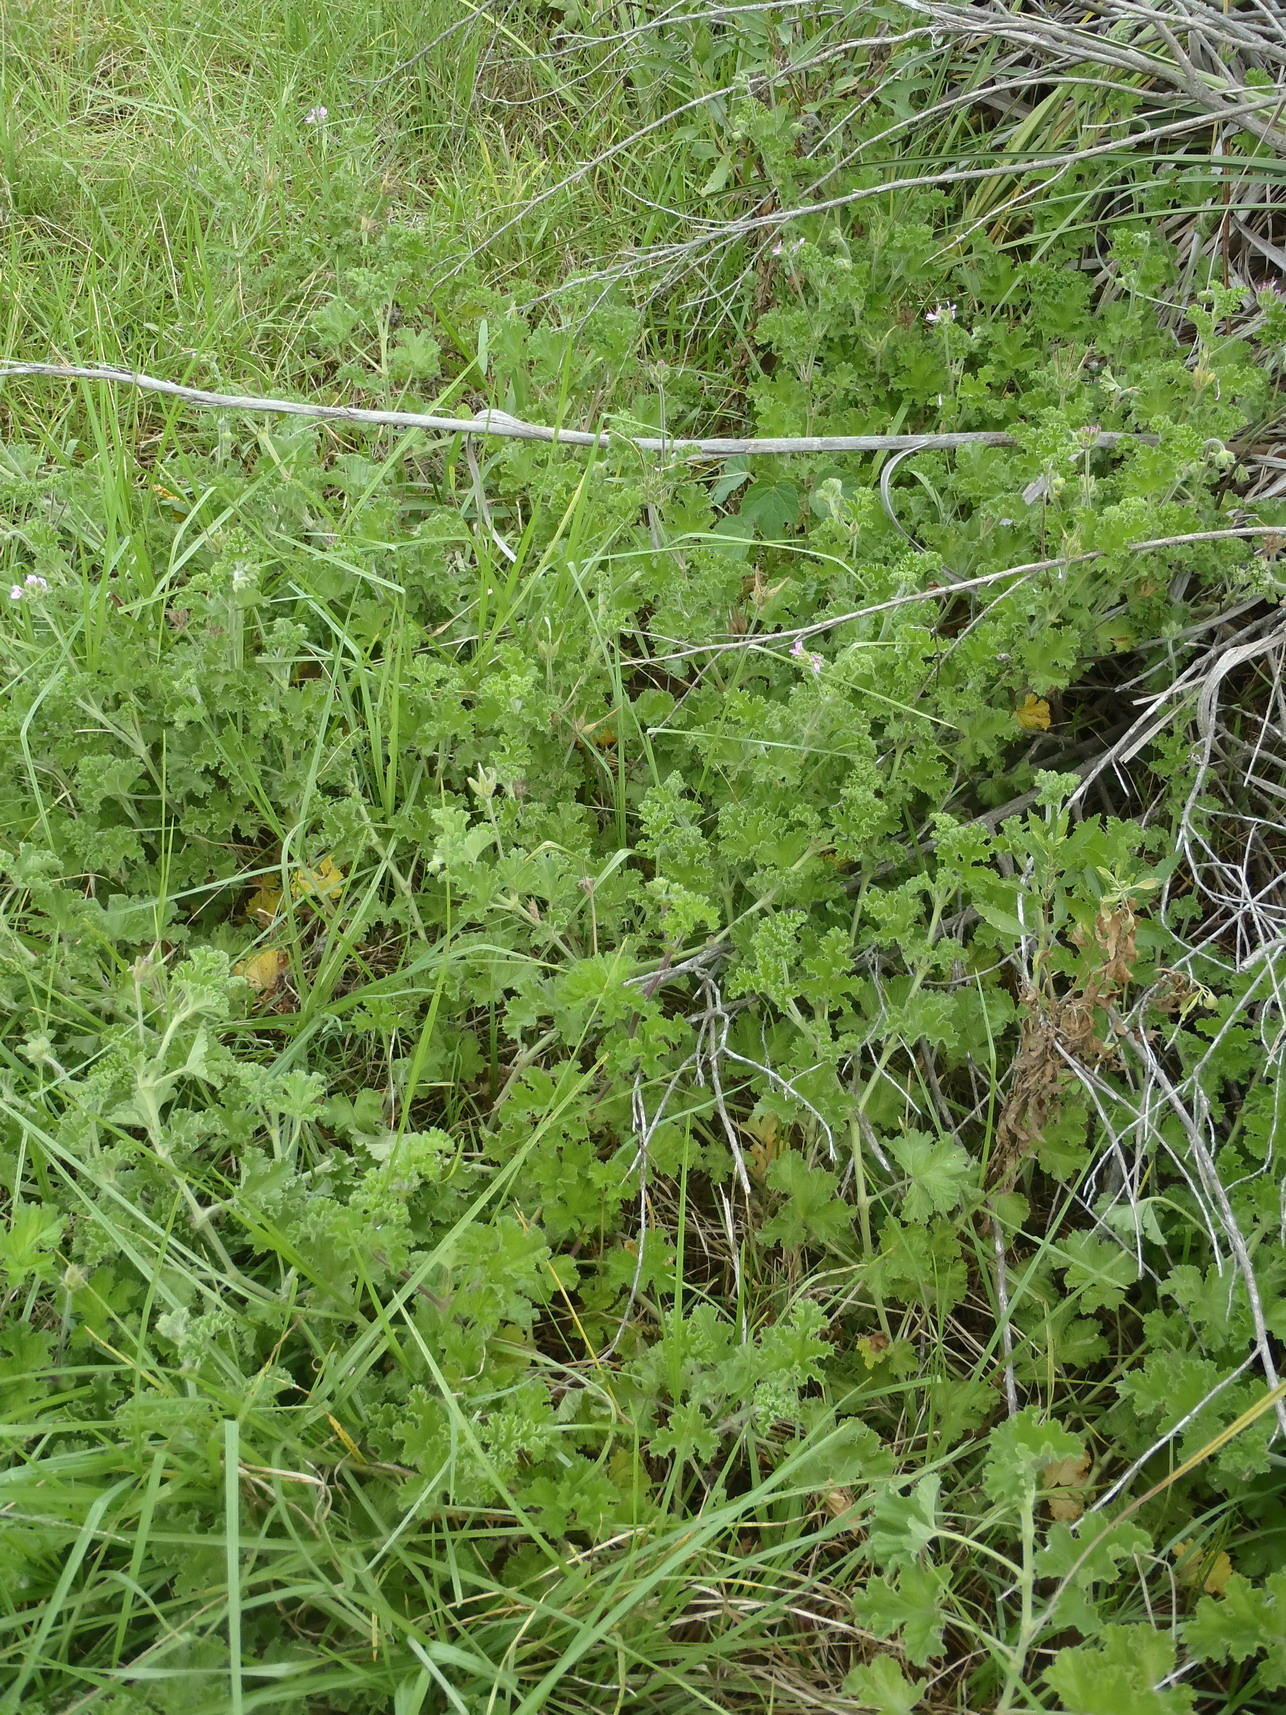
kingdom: Plantae
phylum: Tracheophyta
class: Magnoliopsida
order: Geraniales
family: Geraniaceae
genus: Pelargonium
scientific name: Pelargonium capitatum
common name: Rose scented geranium
